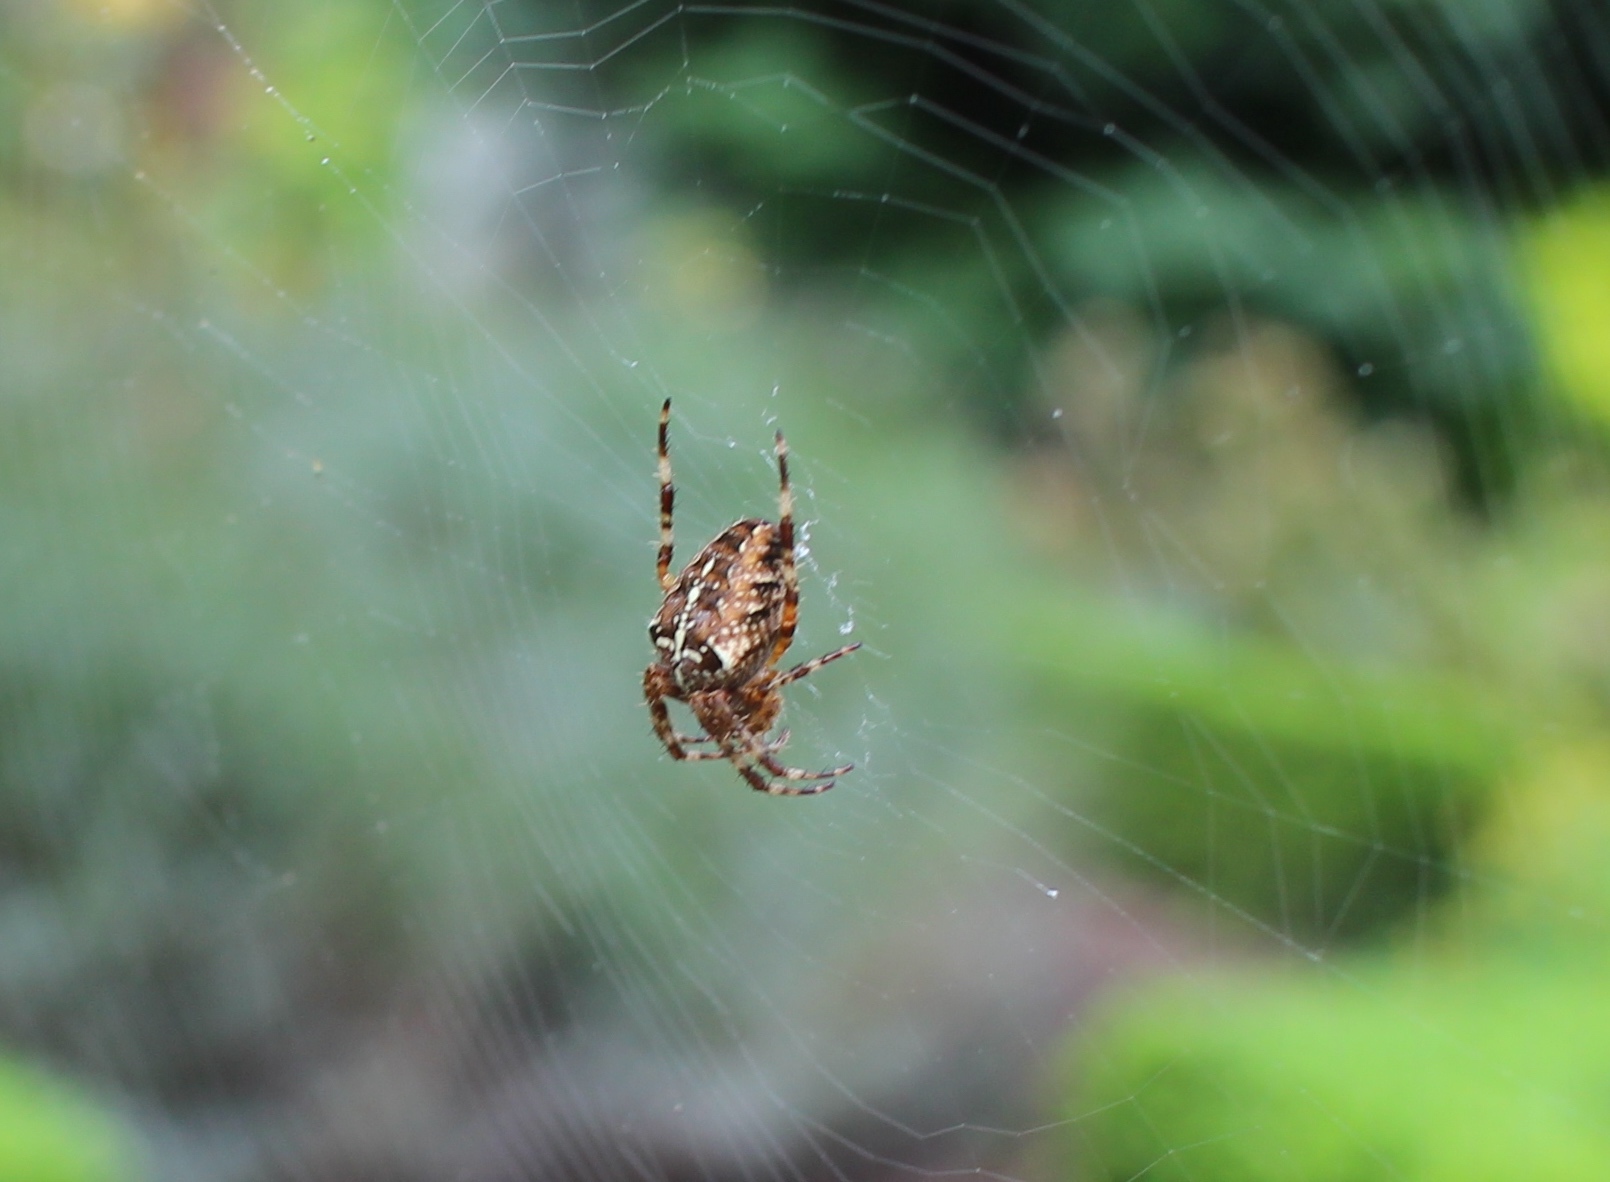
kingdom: Animalia
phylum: Arthropoda
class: Arachnida
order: Araneae
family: Araneidae
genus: Araneus
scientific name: Araneus diadematus
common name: Cross orbweaver
